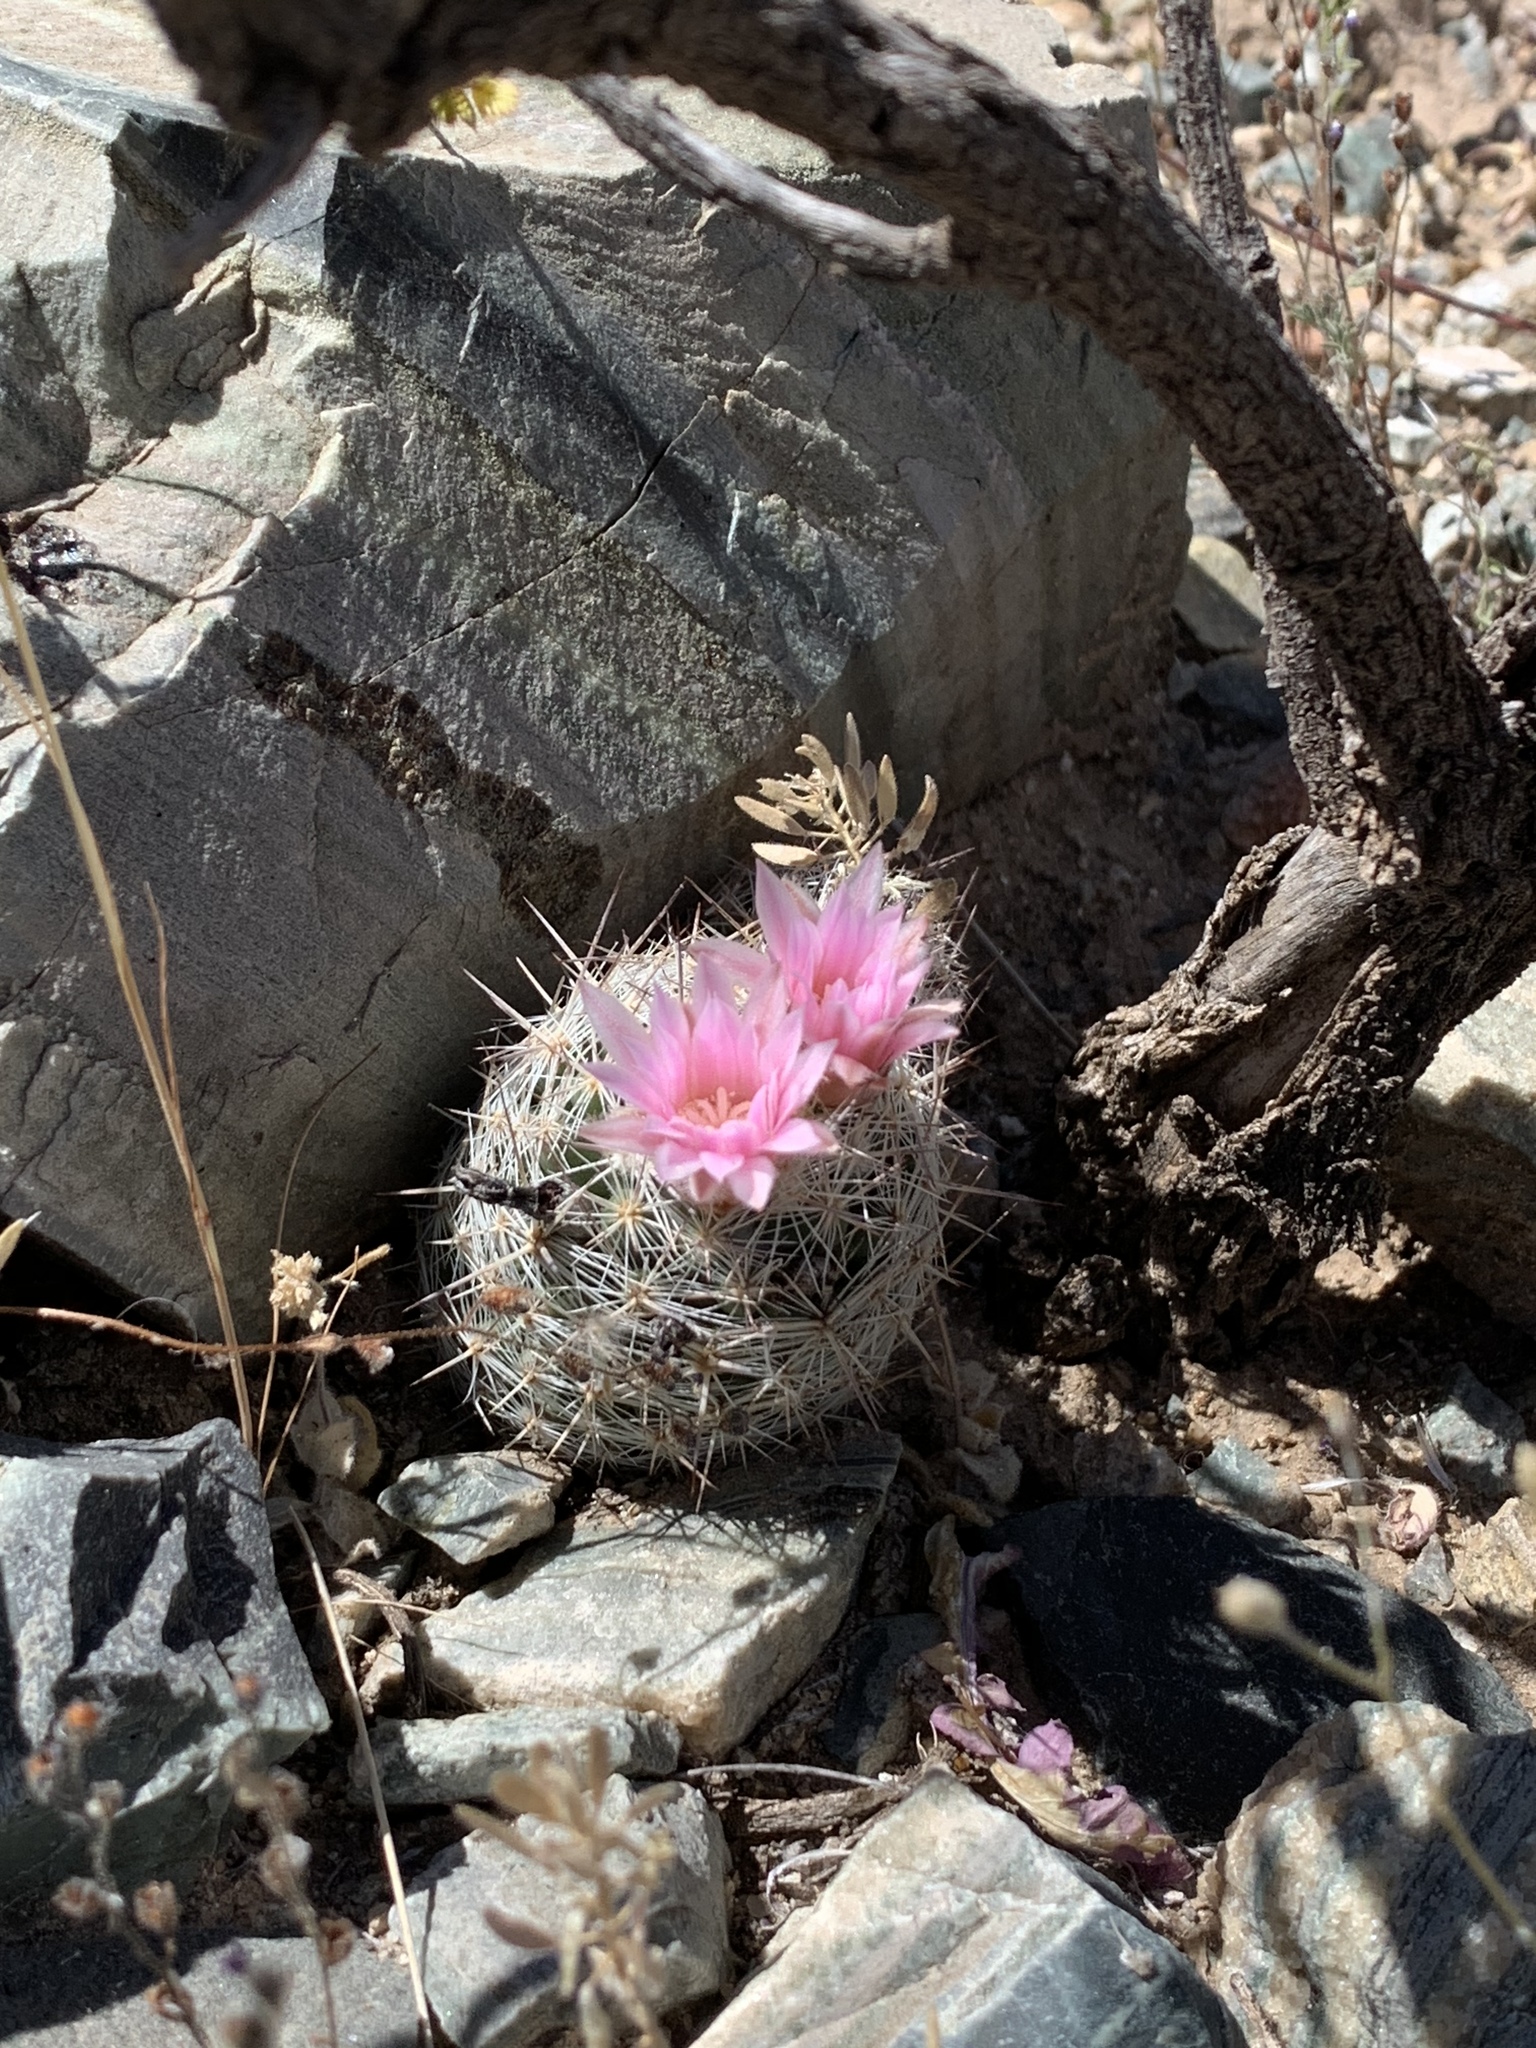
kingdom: Plantae
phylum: Tracheophyta
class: Magnoliopsida
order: Caryophyllales
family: Cactaceae
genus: Pelecyphora
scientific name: Pelecyphora tuberculosa
